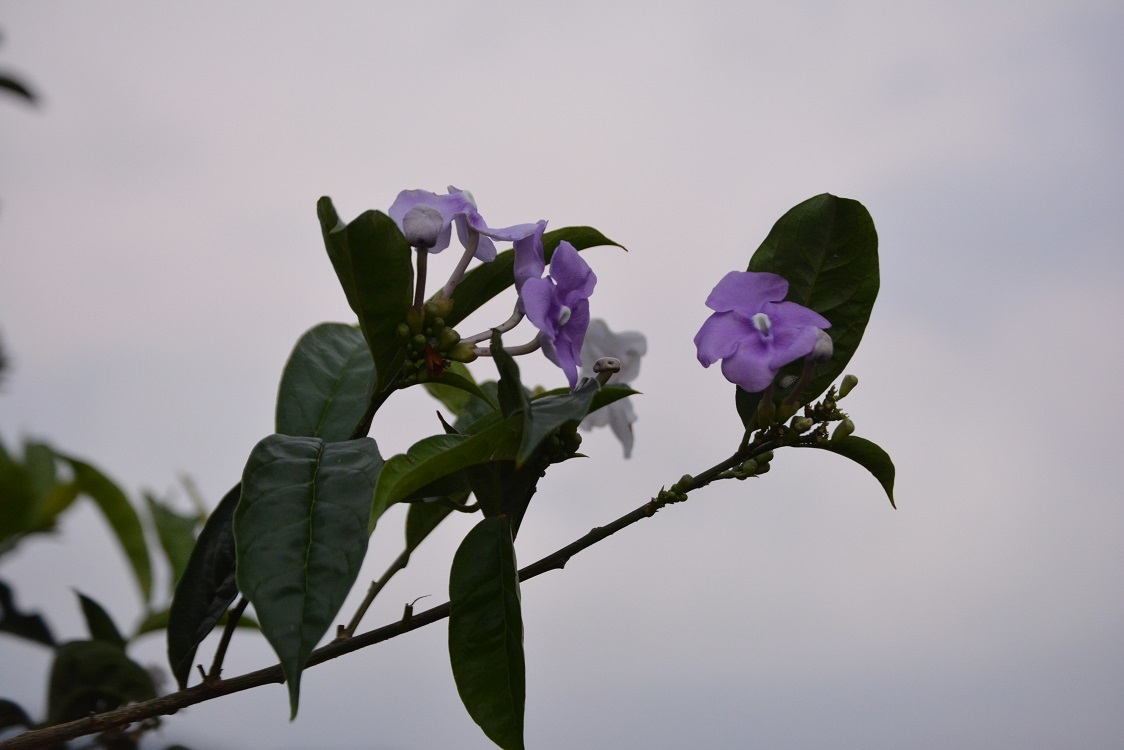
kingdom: Plantae
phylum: Tracheophyta
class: Magnoliopsida
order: Solanales
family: Solanaceae
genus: Brunfelsia
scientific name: Brunfelsia pauciflora
